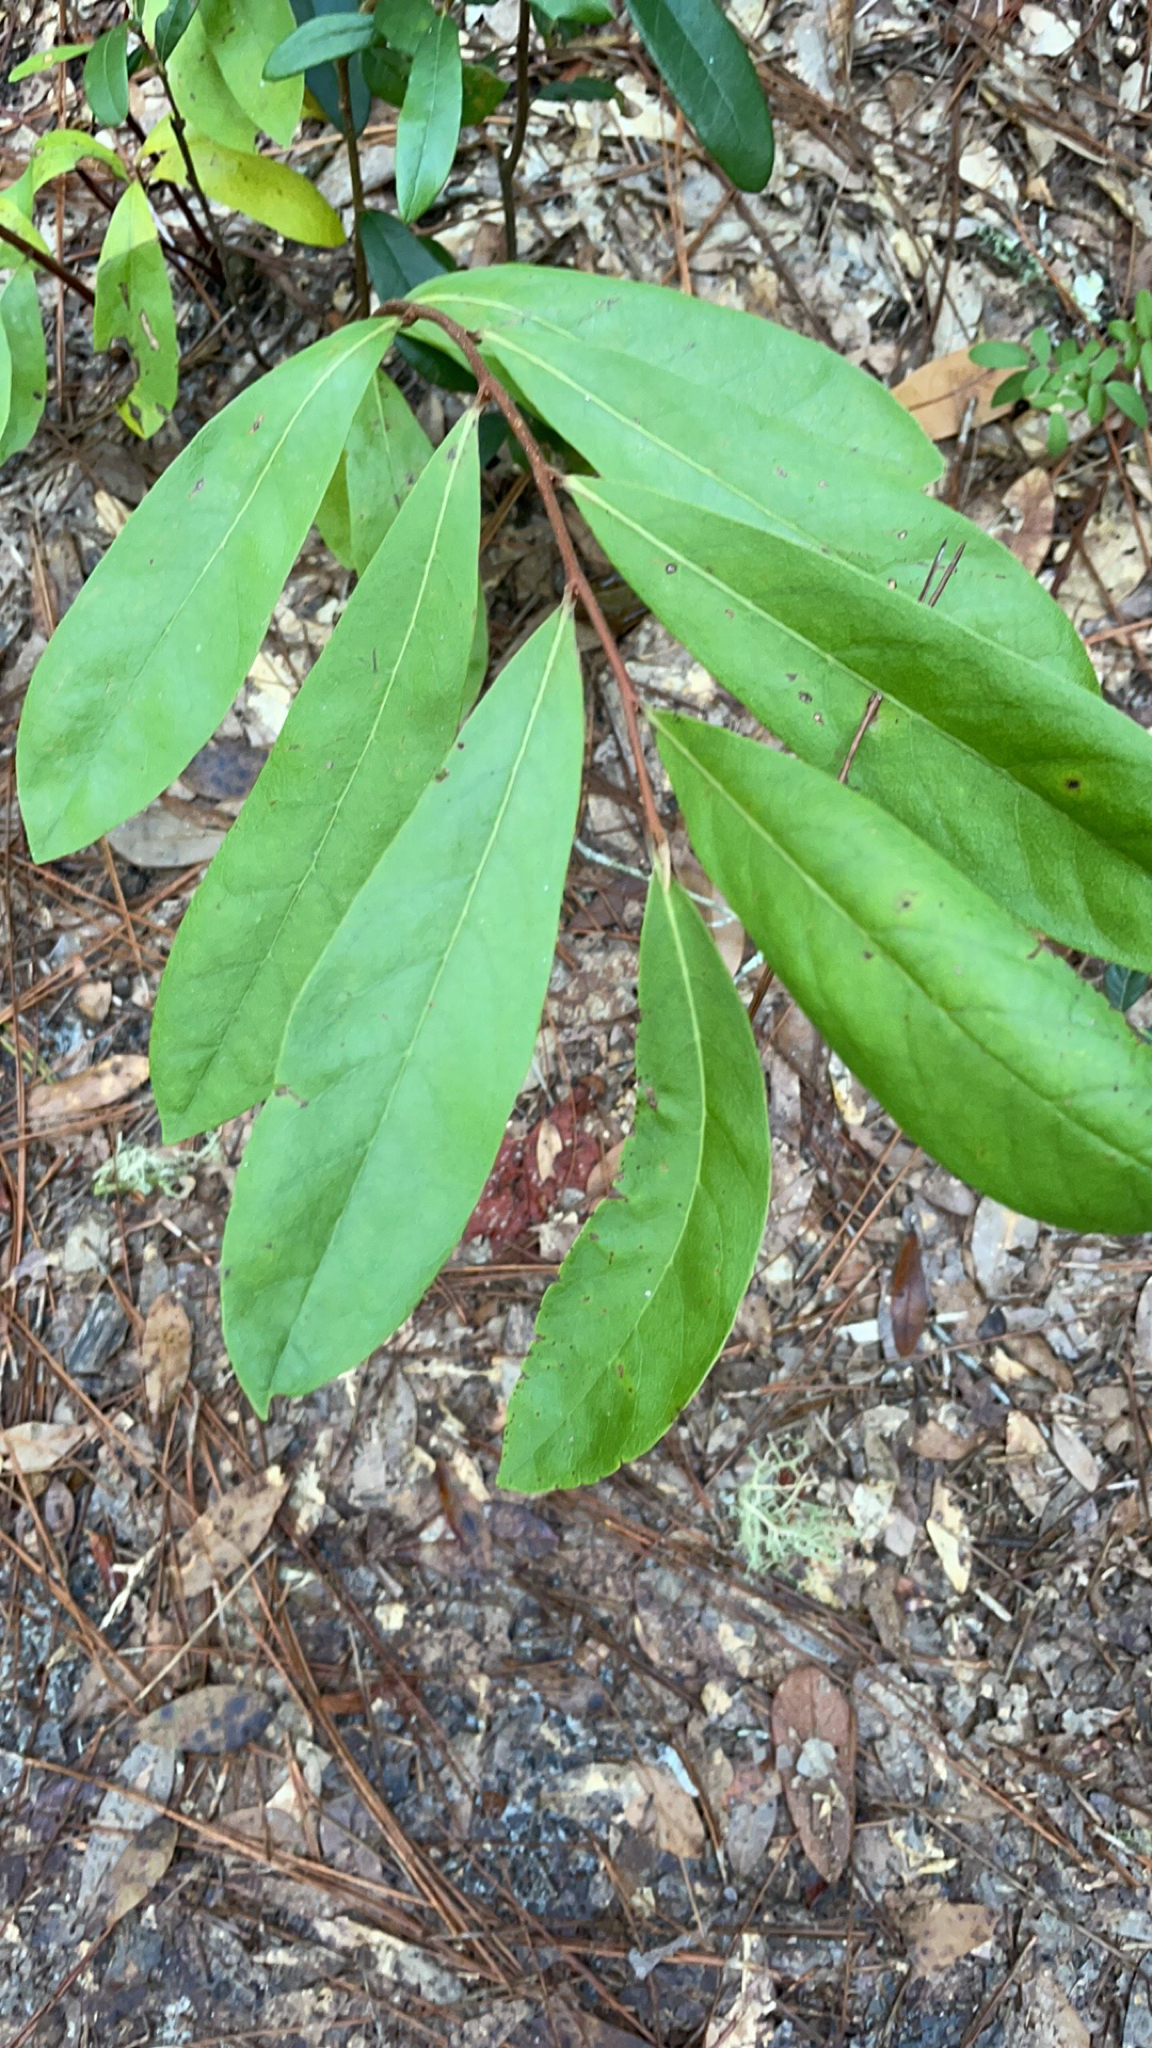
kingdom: Plantae
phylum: Tracheophyta
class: Magnoliopsida
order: Magnoliales
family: Annonaceae
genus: Asimina
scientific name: Asimina parviflora
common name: Dwarf pawpaw
